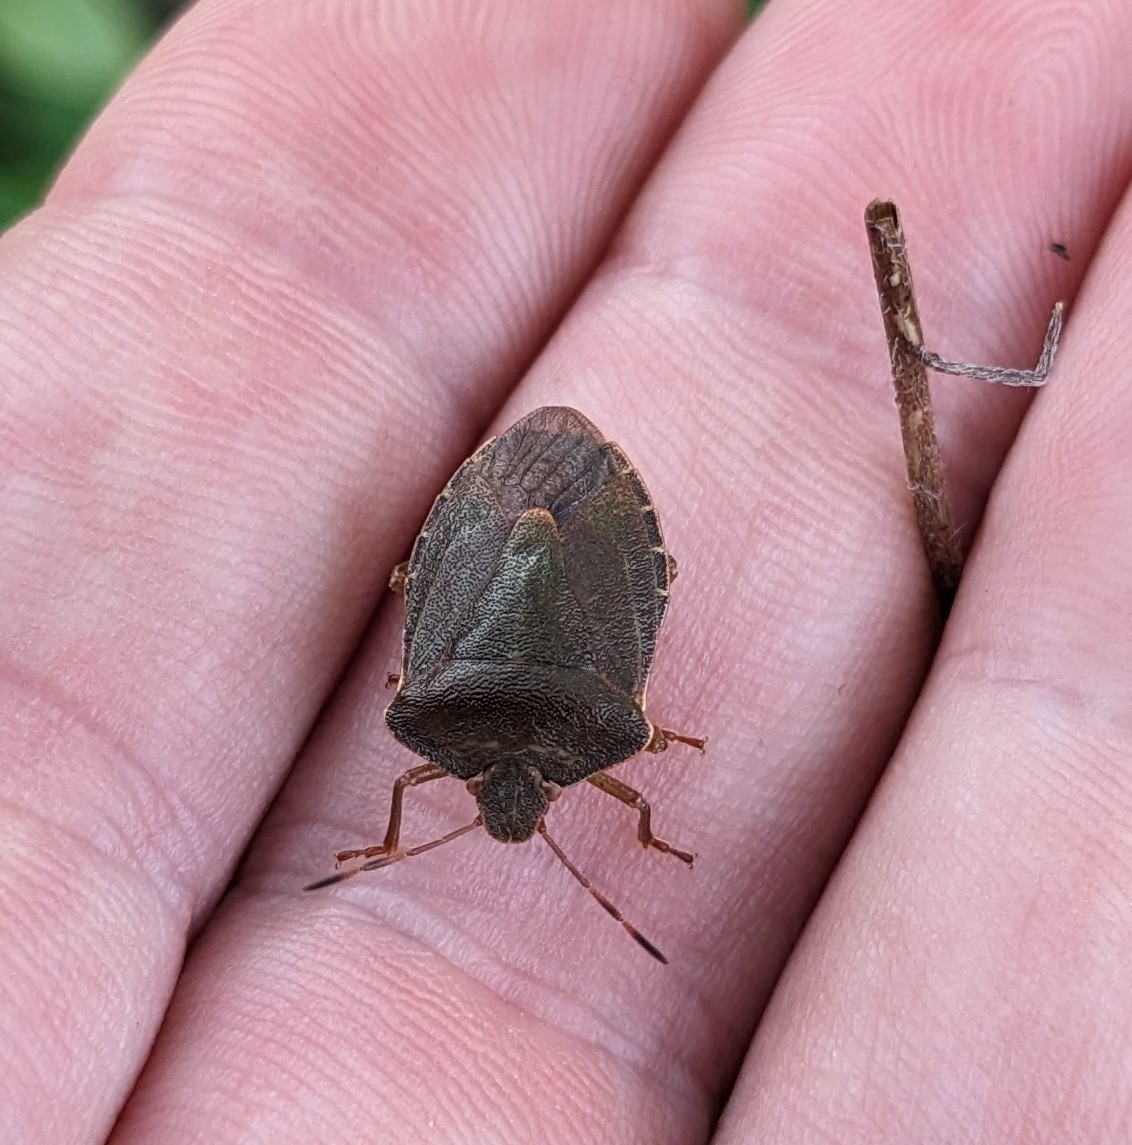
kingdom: Animalia
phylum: Arthropoda
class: Insecta
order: Hemiptera
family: Pentatomidae
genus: Palomena
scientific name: Palomena prasina
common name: Green shieldbug
